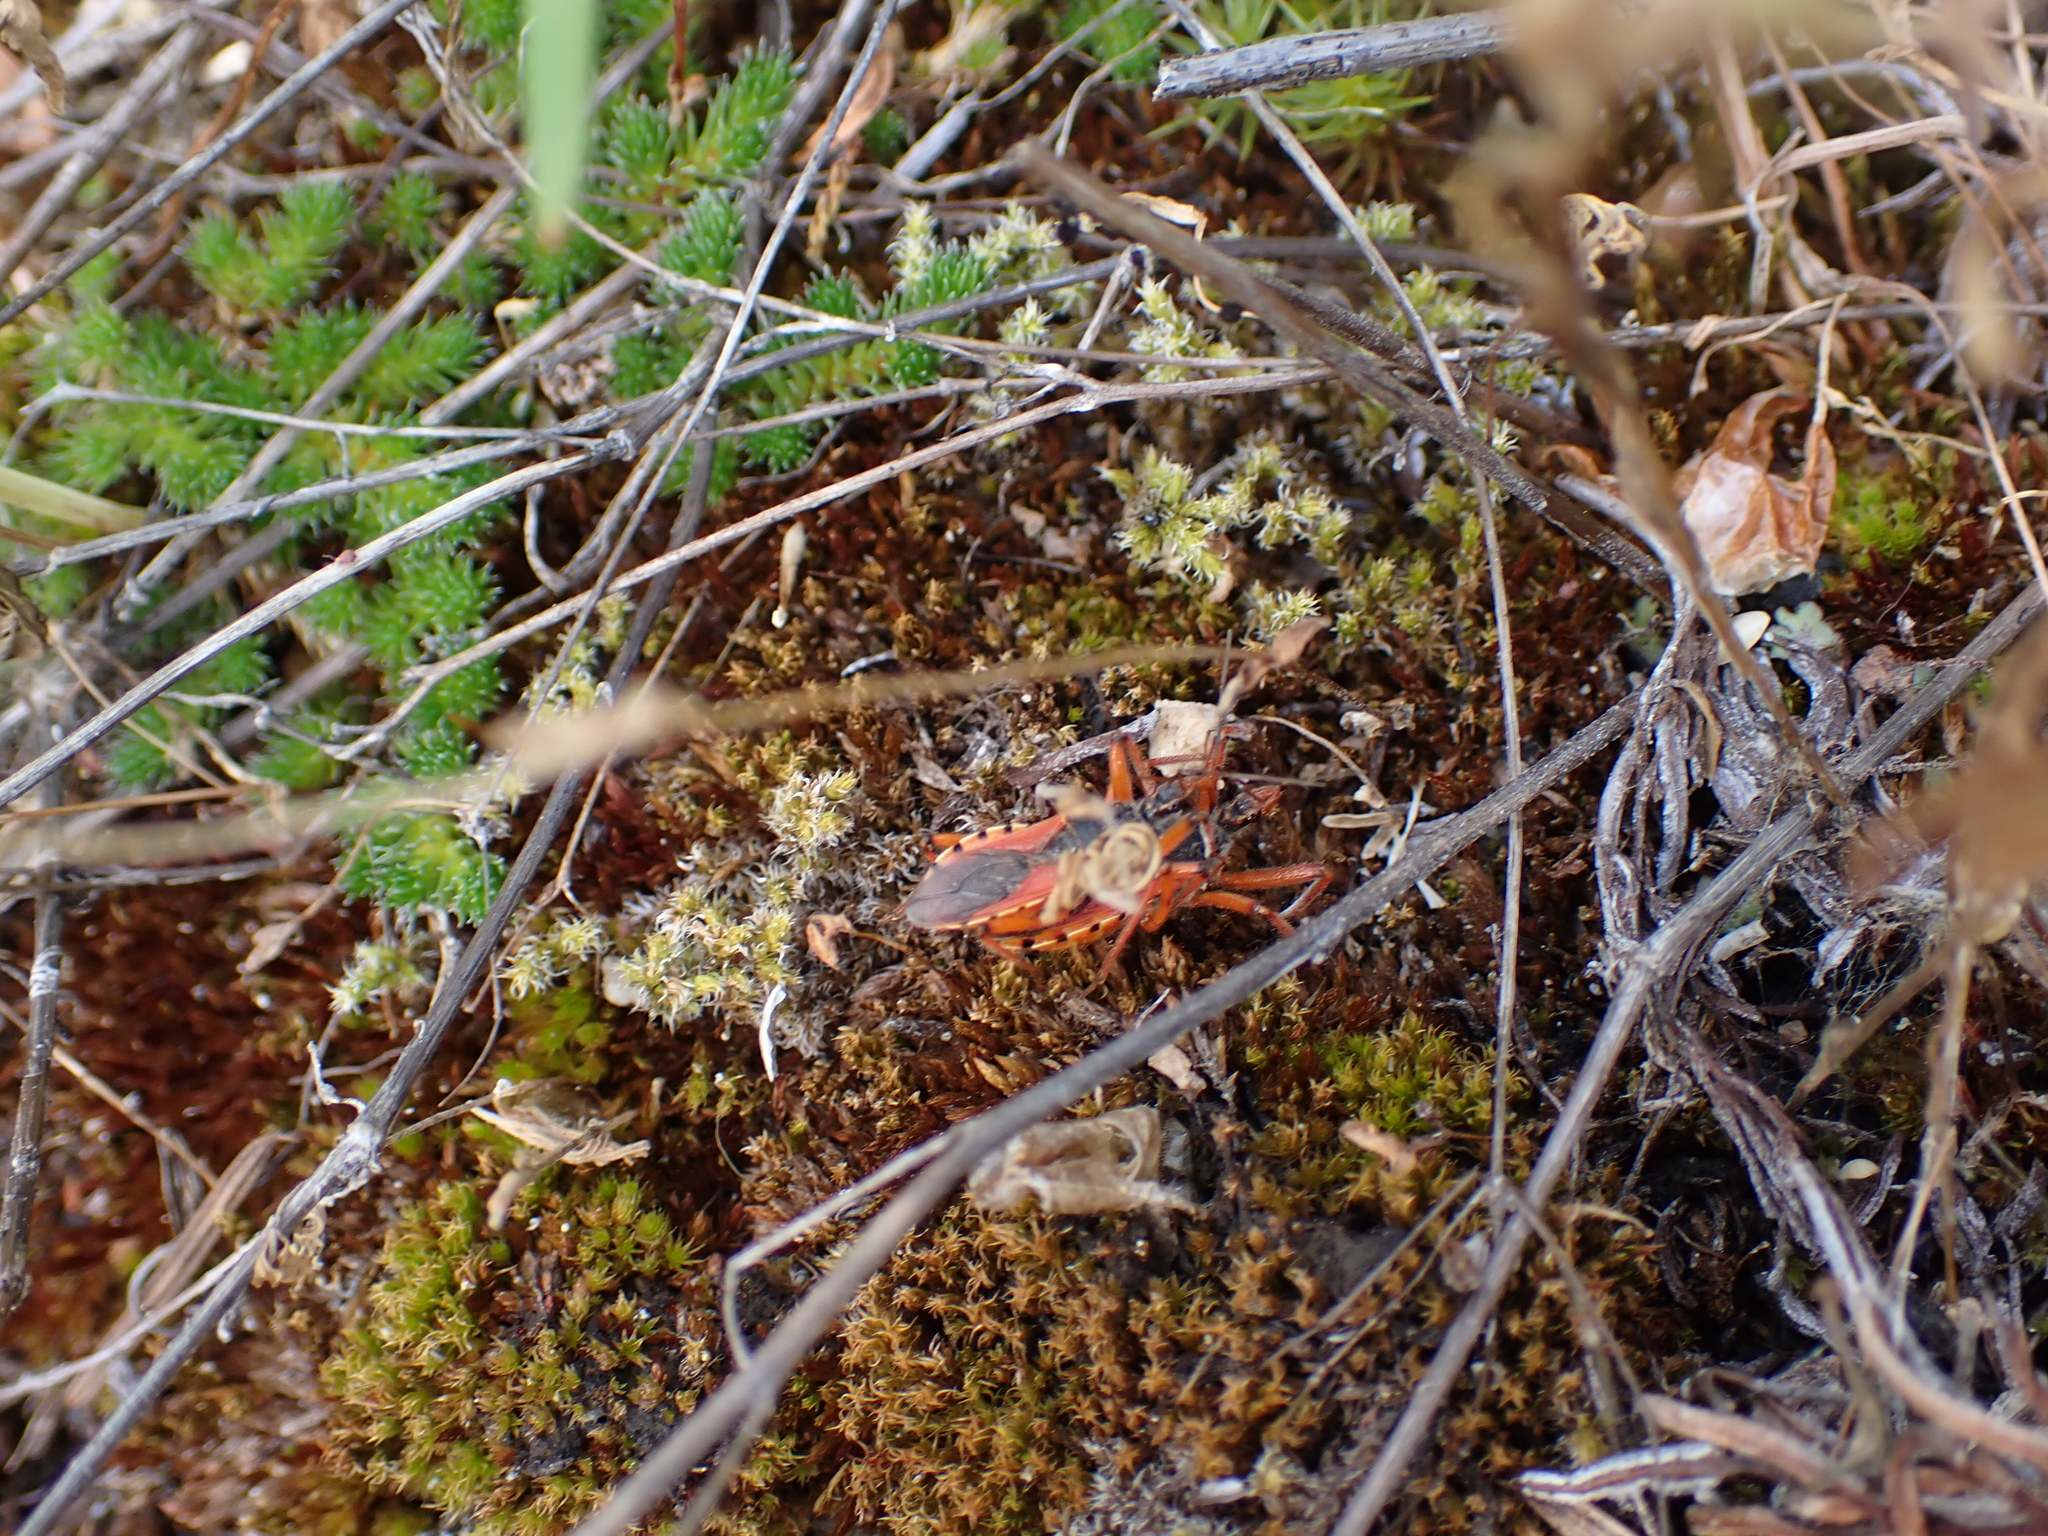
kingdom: Animalia
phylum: Arthropoda
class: Insecta
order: Hemiptera
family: Reduviidae
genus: Rhynocoris
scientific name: Rhynocoris ventralis
